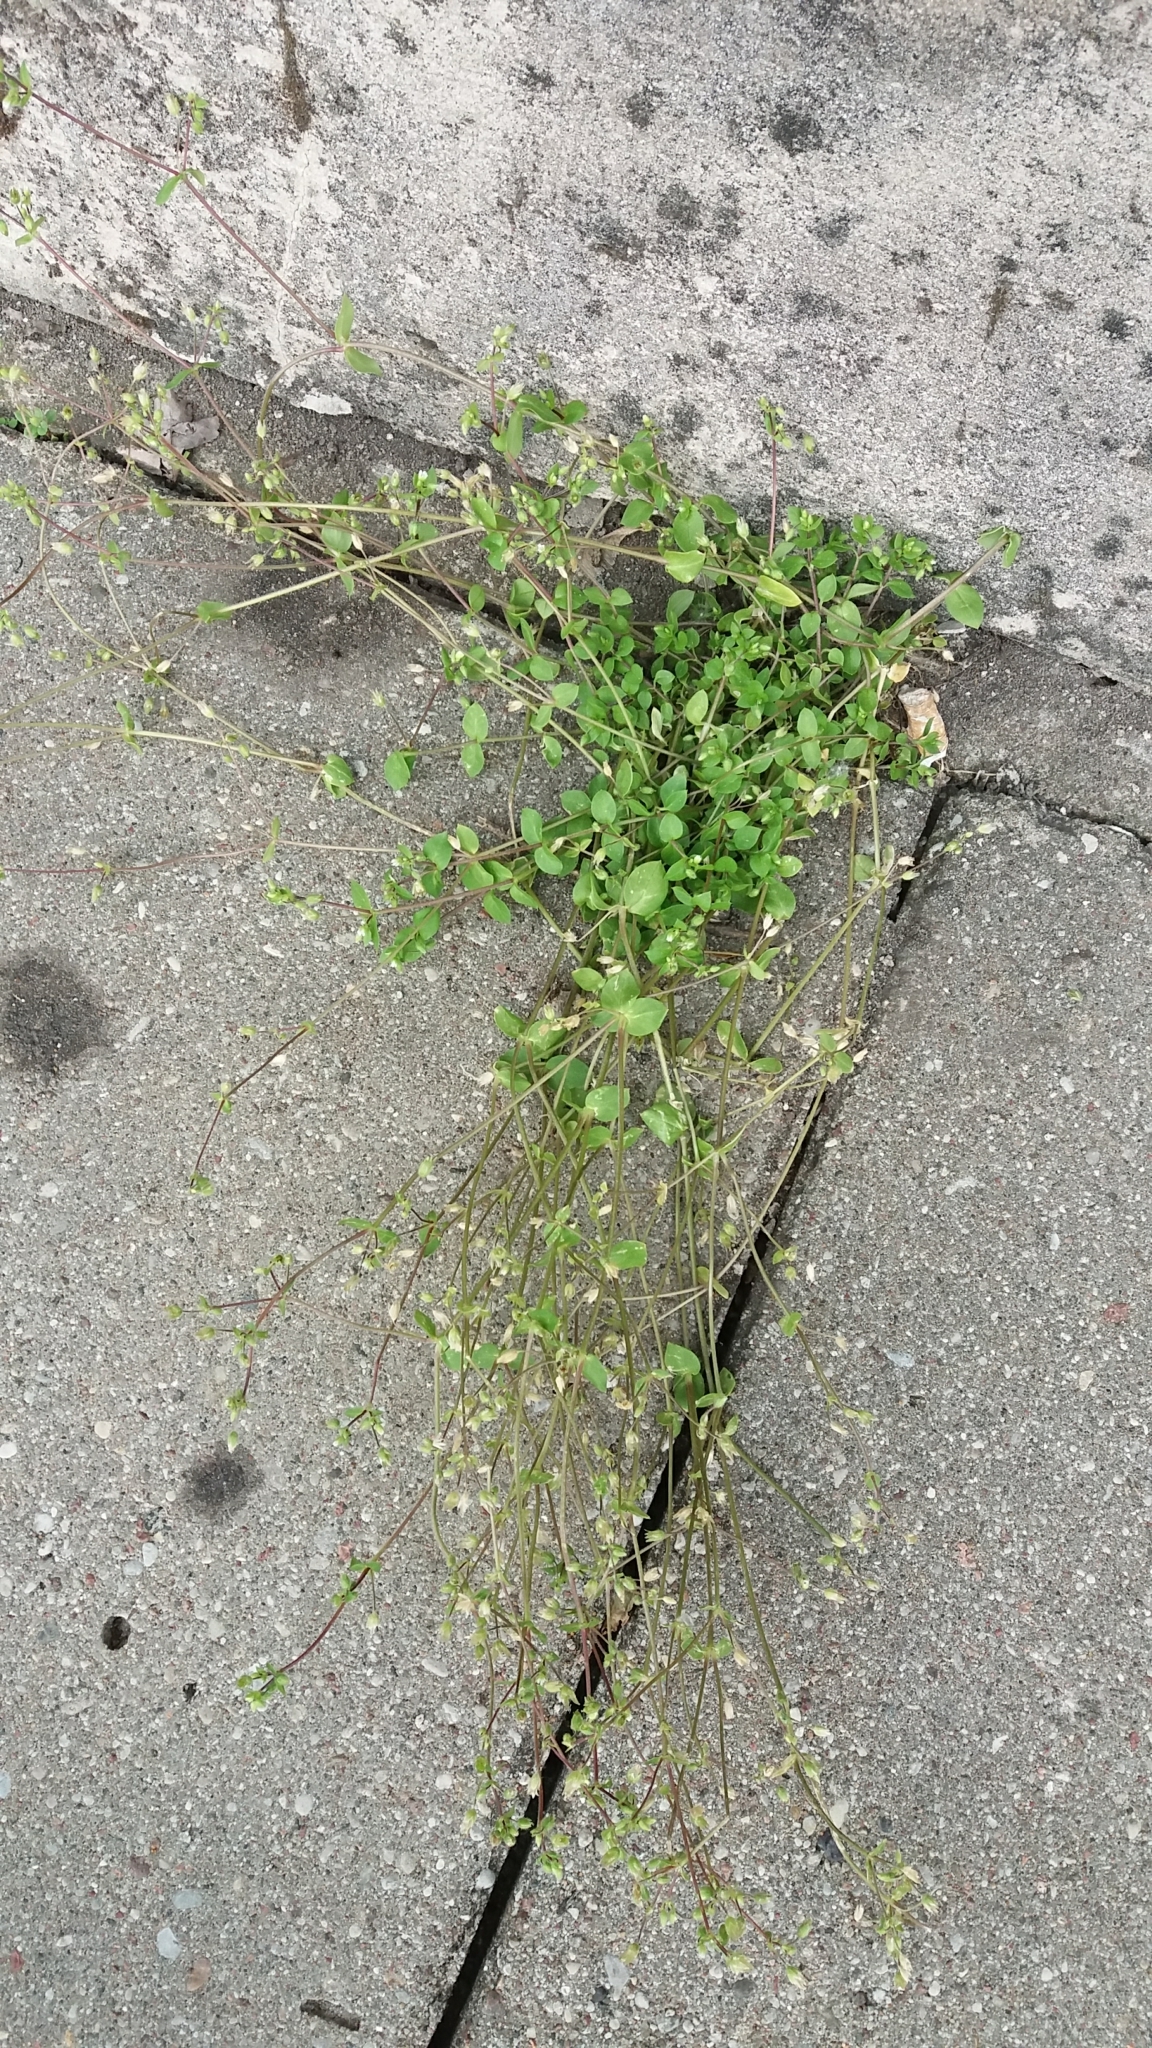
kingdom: Plantae
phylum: Tracheophyta
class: Magnoliopsida
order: Caryophyllales
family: Caryophyllaceae
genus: Stellaria
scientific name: Stellaria media
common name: Common chickweed
